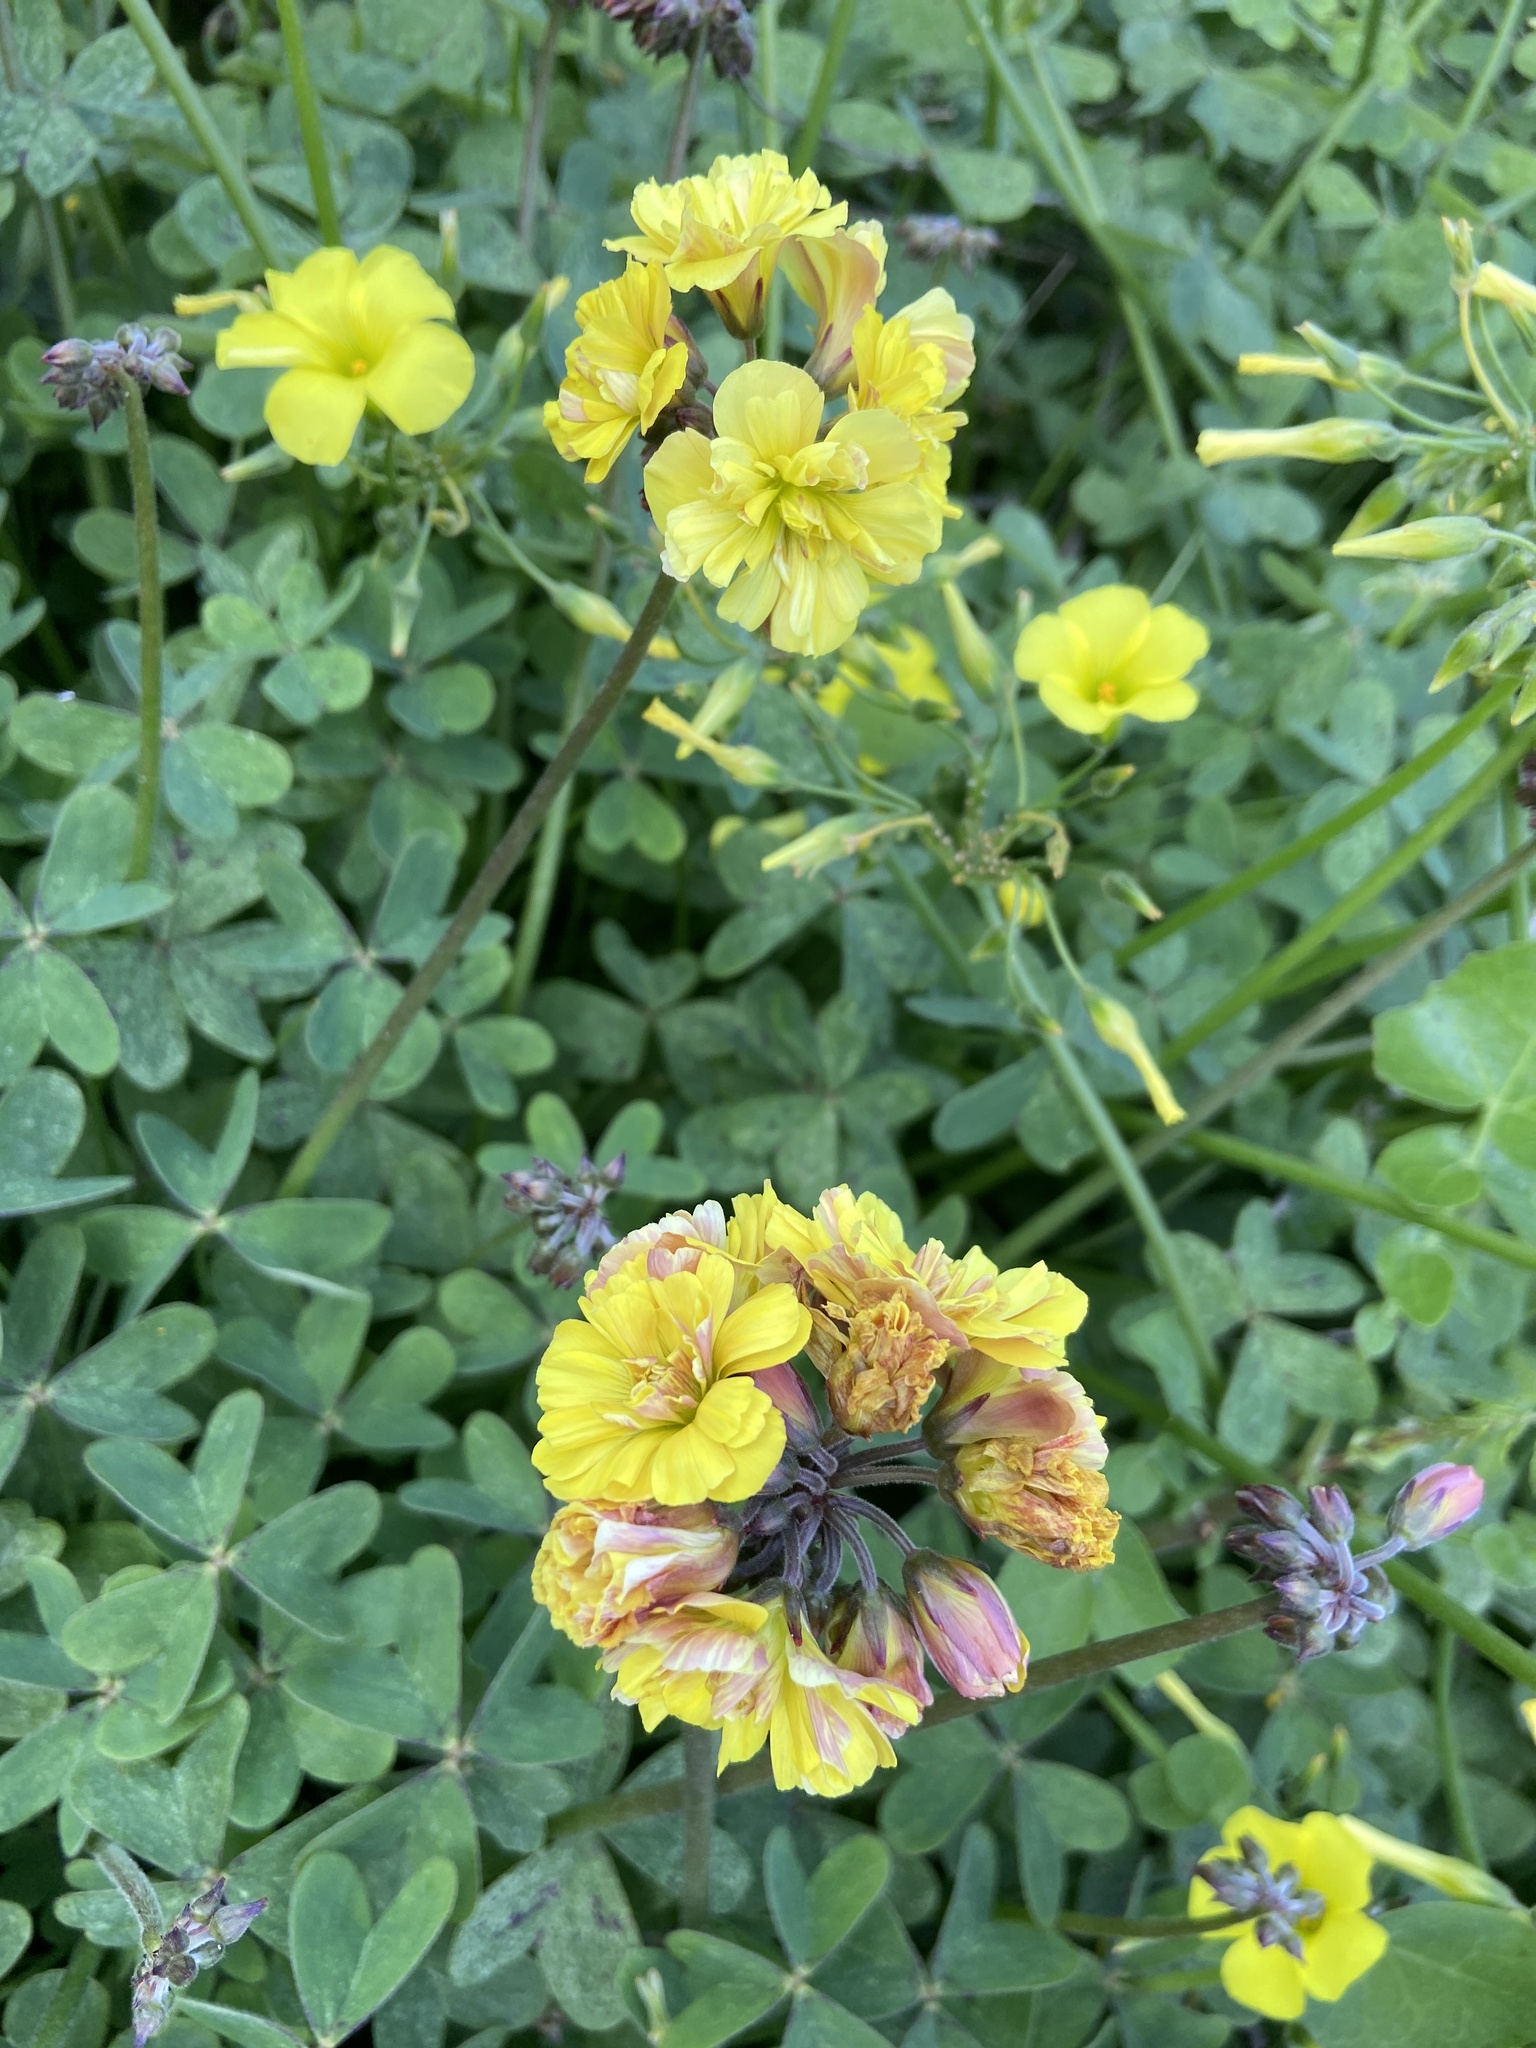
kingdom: Plantae
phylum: Tracheophyta
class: Magnoliopsida
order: Oxalidales
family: Oxalidaceae
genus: Oxalis
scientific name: Oxalis pes-caprae
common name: Bermuda-buttercup
